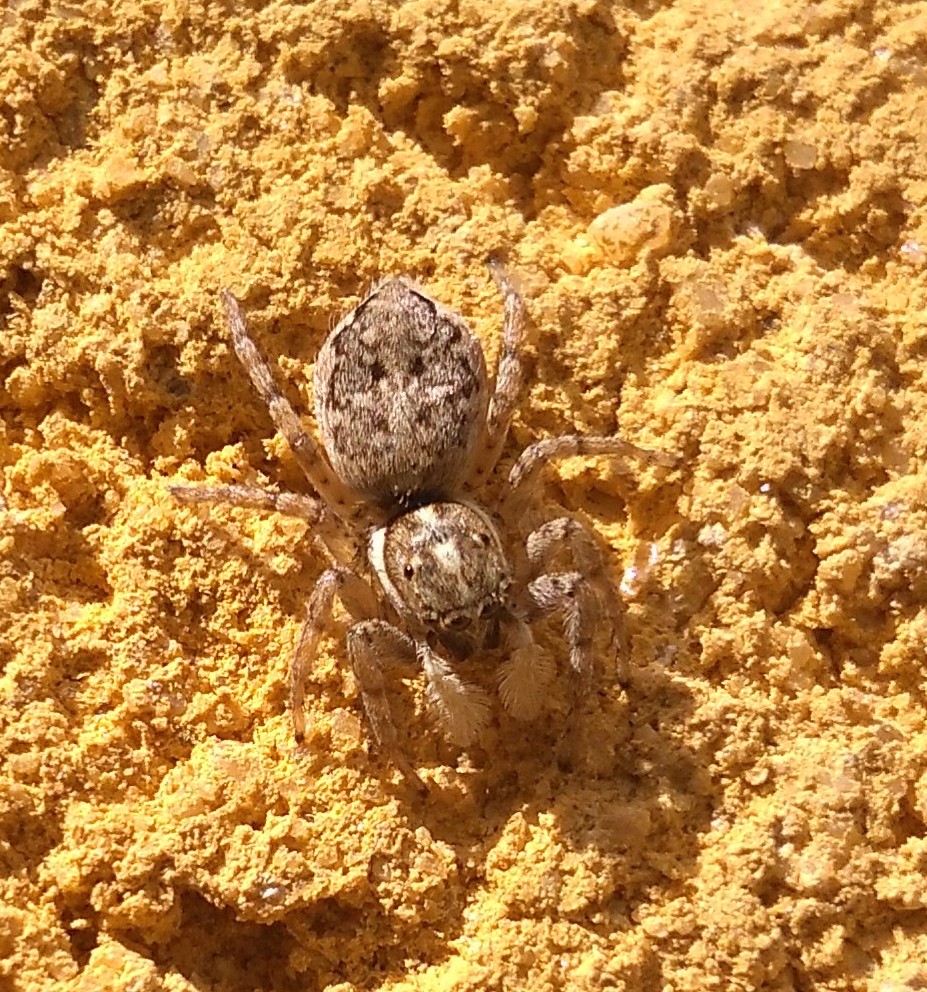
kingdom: Animalia
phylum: Arthropoda
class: Arachnida
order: Araneae
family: Salticidae
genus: Menemerus
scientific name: Menemerus semilimbatus
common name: Jumping spider
